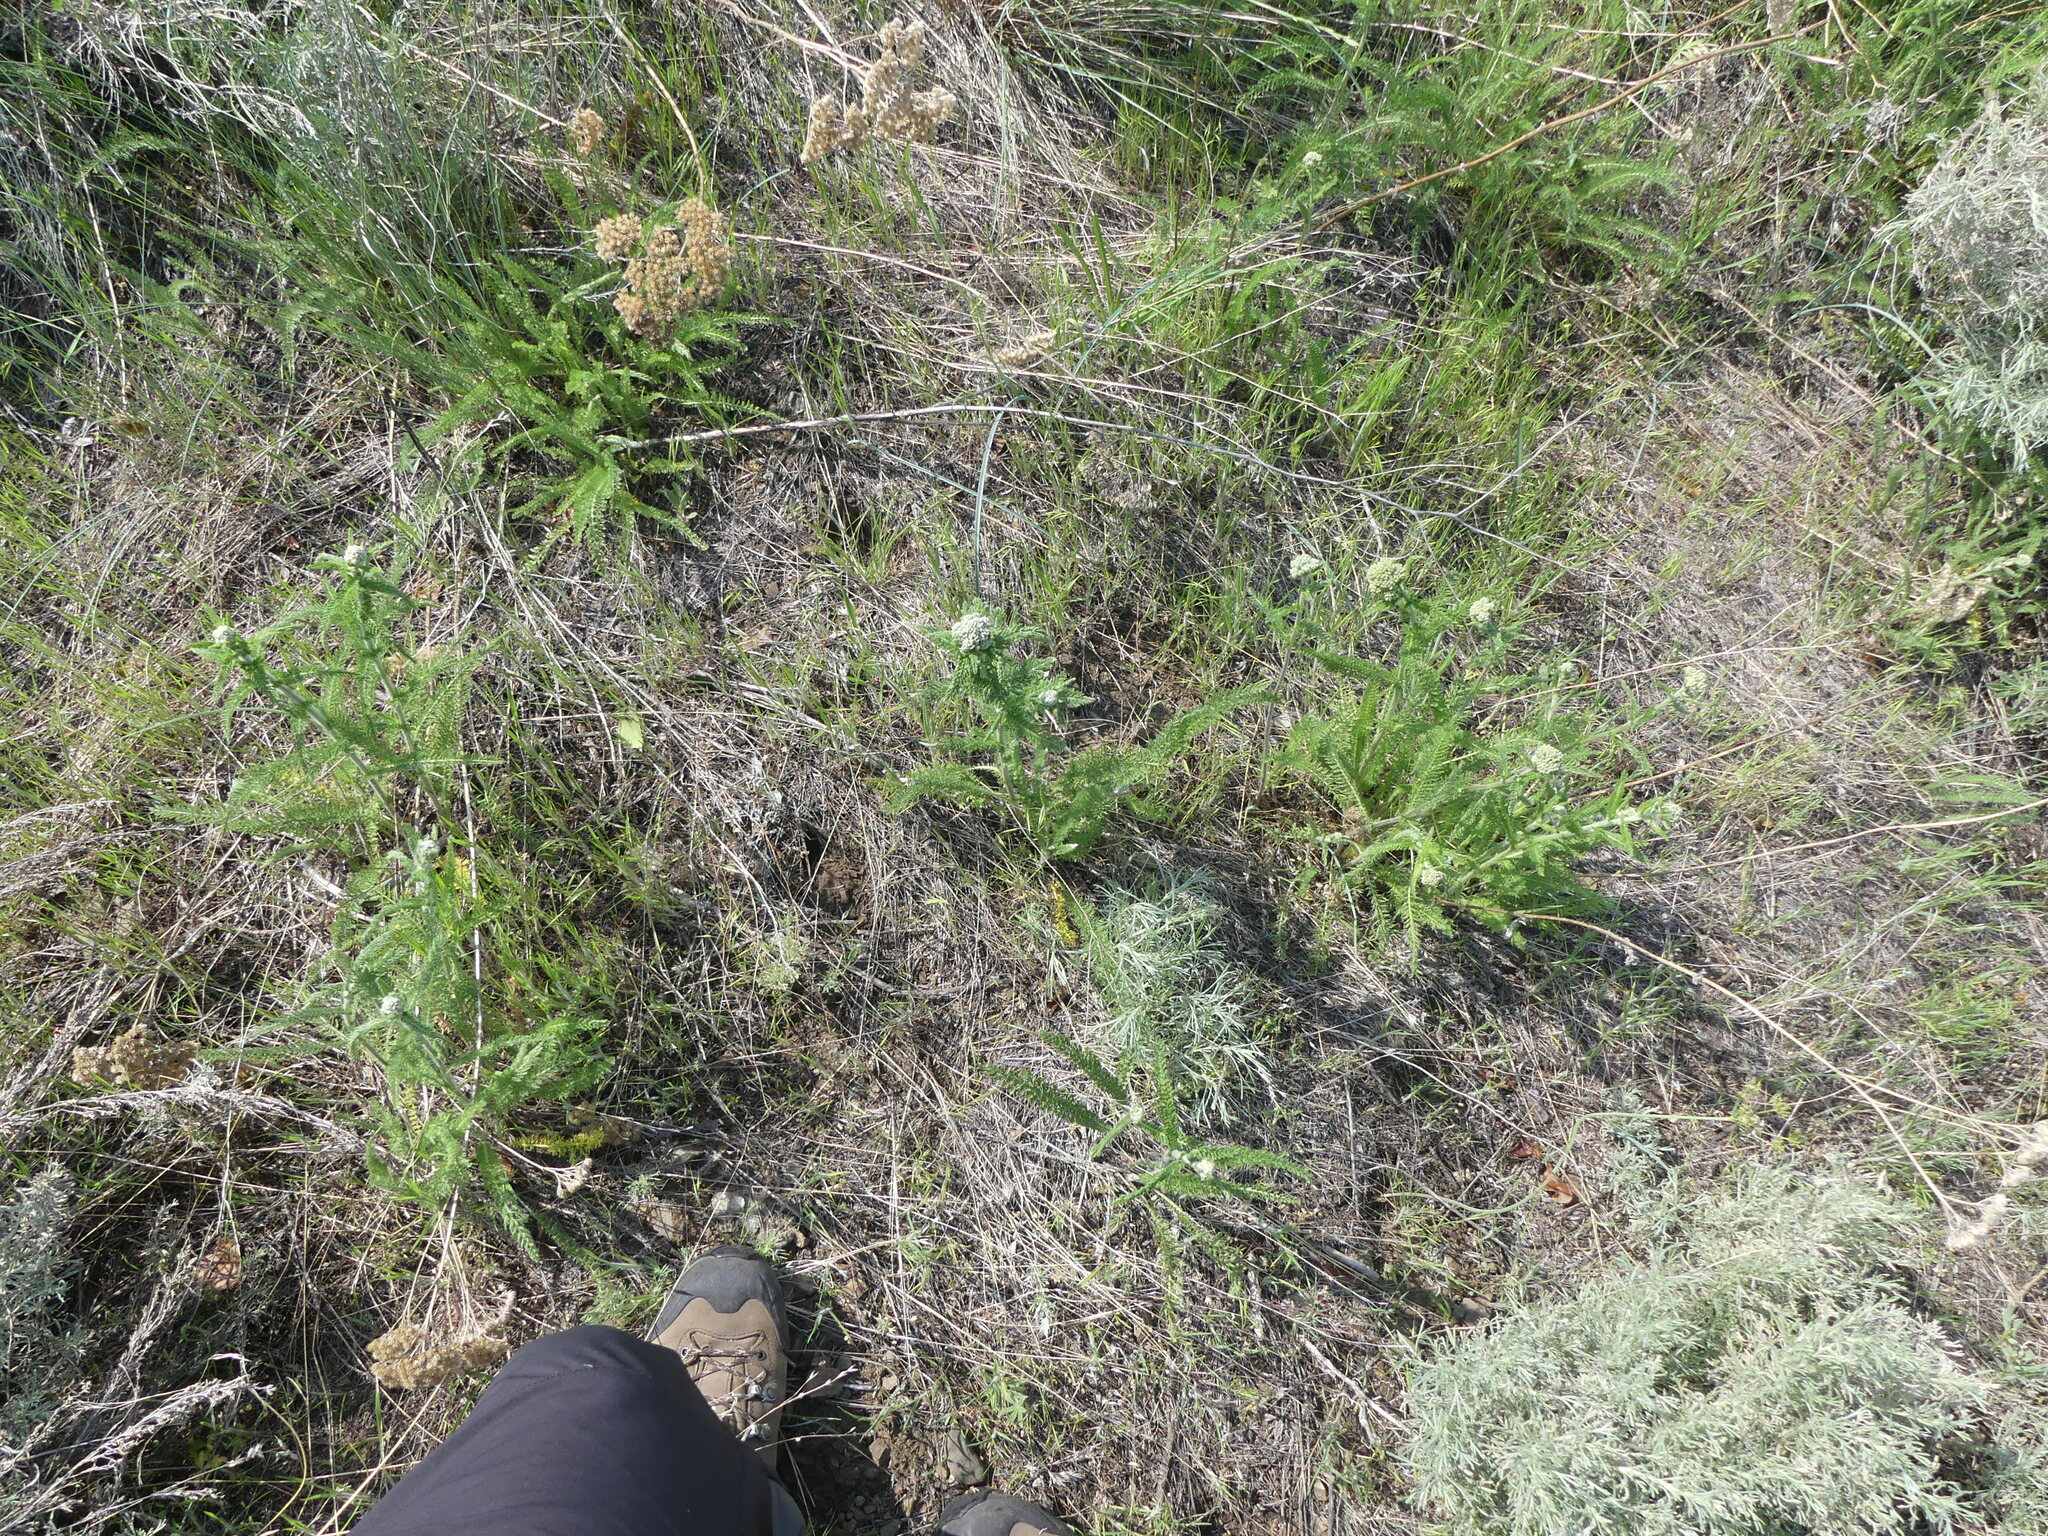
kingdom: Plantae
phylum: Tracheophyta
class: Magnoliopsida
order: Asterales
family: Asteraceae
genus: Achillea
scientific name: Achillea millefolium
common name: Yarrow
